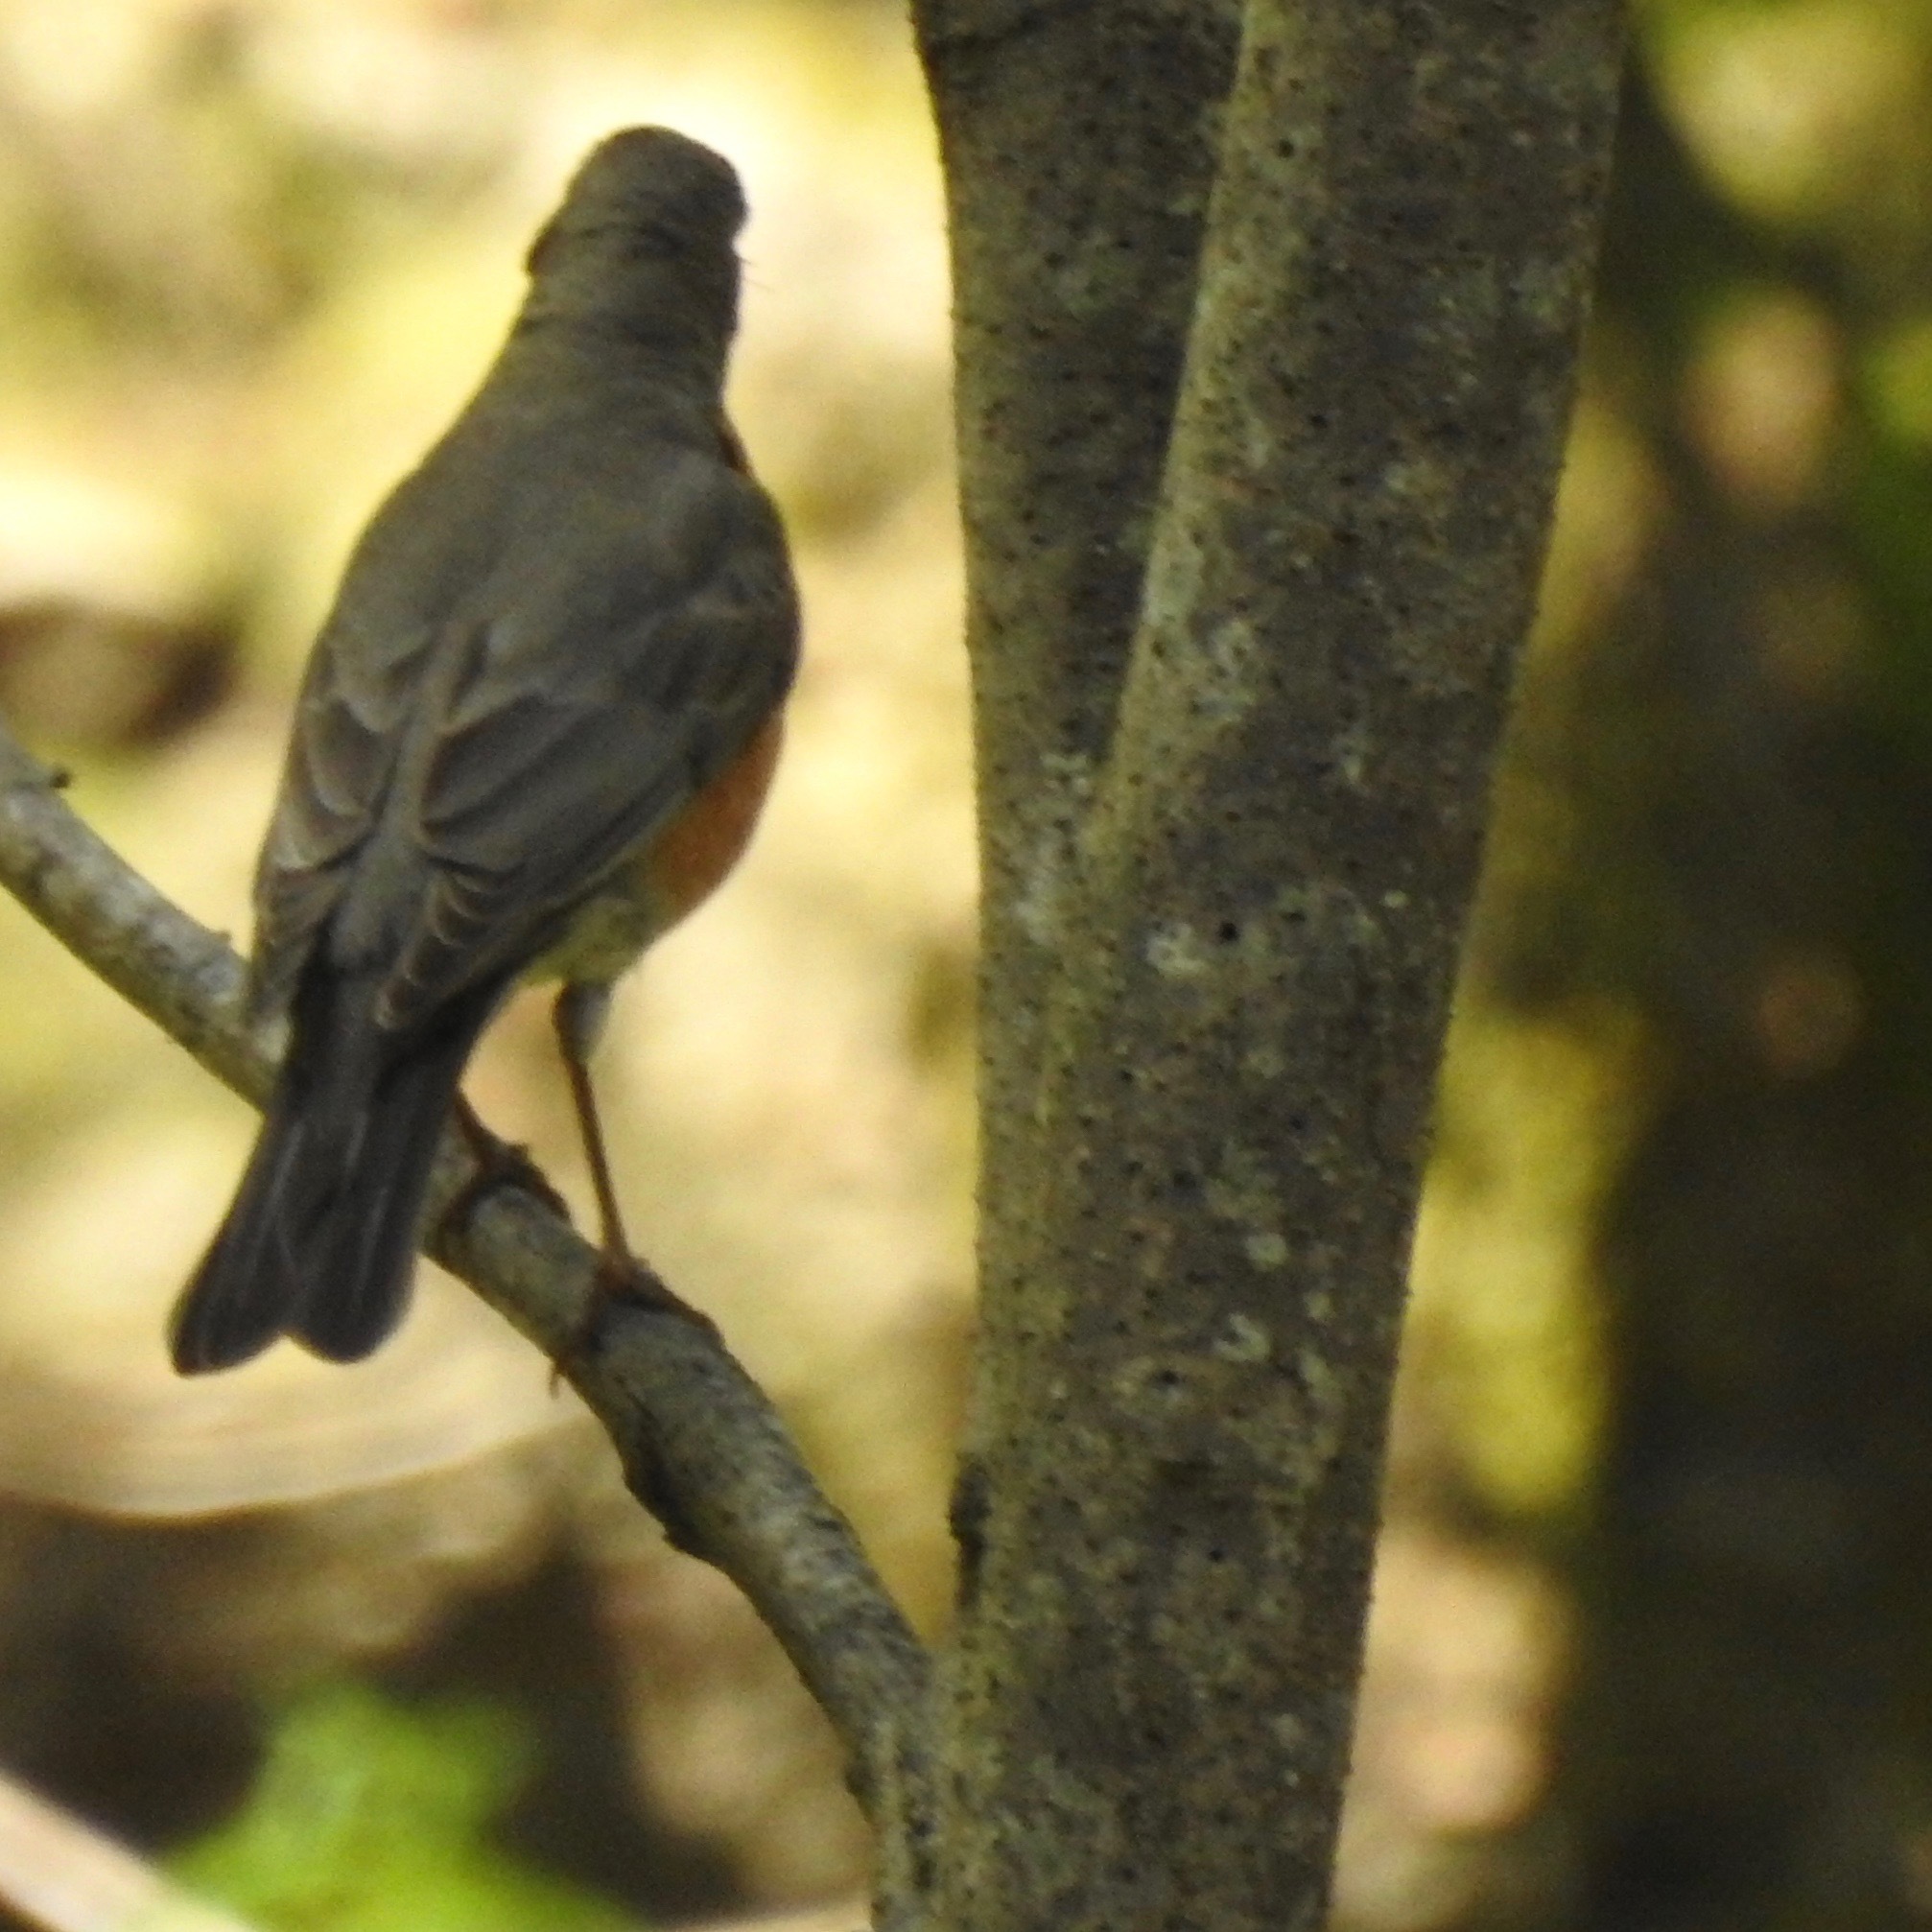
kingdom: Animalia
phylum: Chordata
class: Aves
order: Passeriformes
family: Turdidae
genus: Turdus
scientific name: Turdus migratorius
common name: American robin
